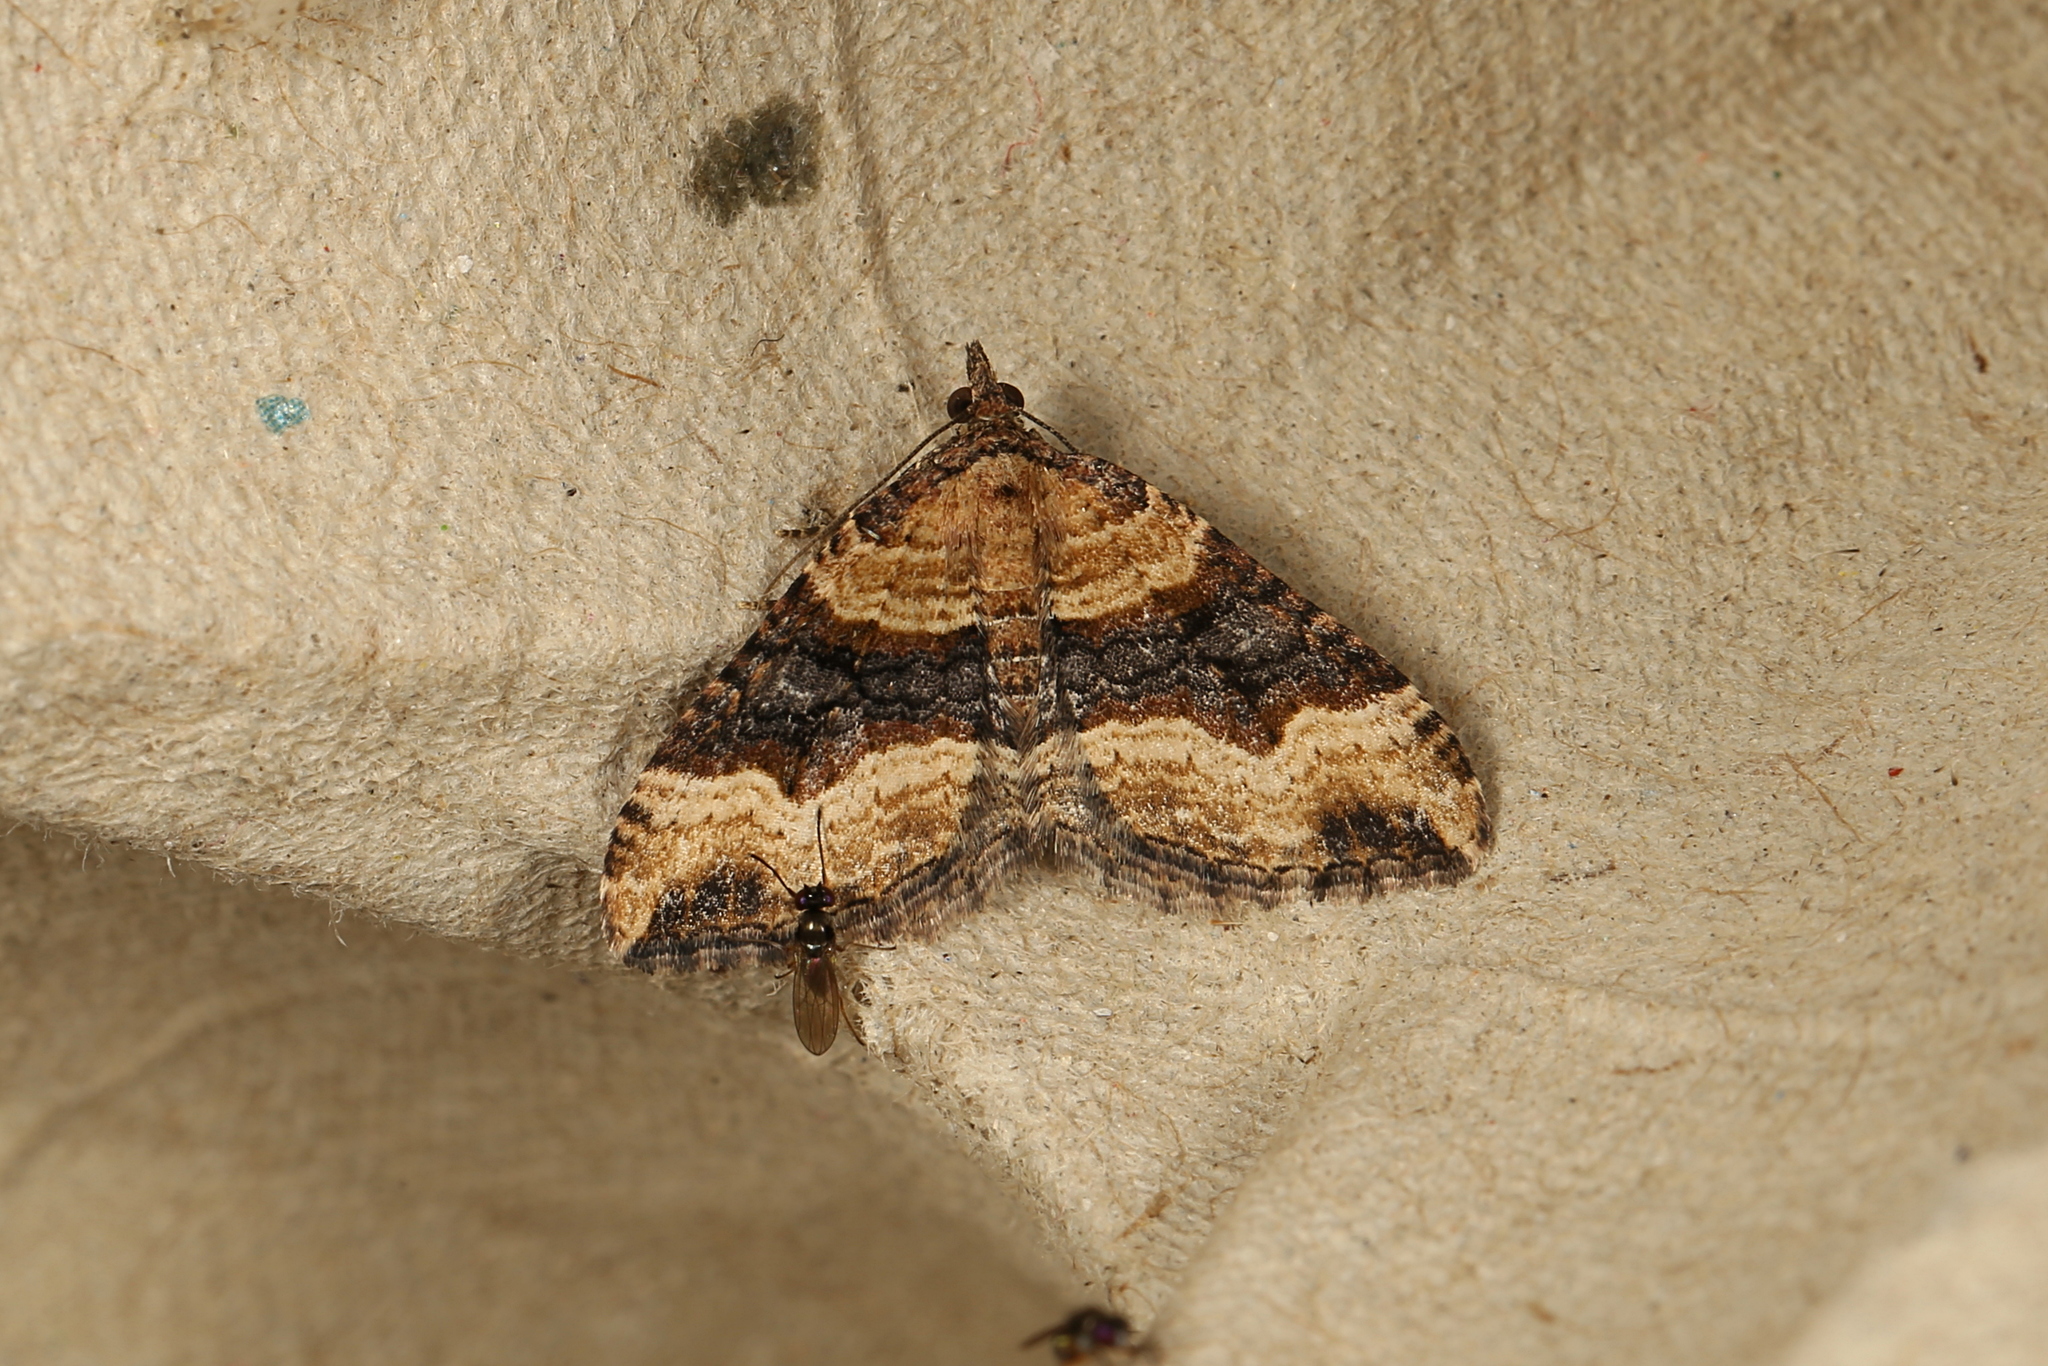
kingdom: Animalia
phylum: Arthropoda
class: Insecta
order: Lepidoptera
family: Geometridae
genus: Epyaxa
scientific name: Epyaxa subidaria
